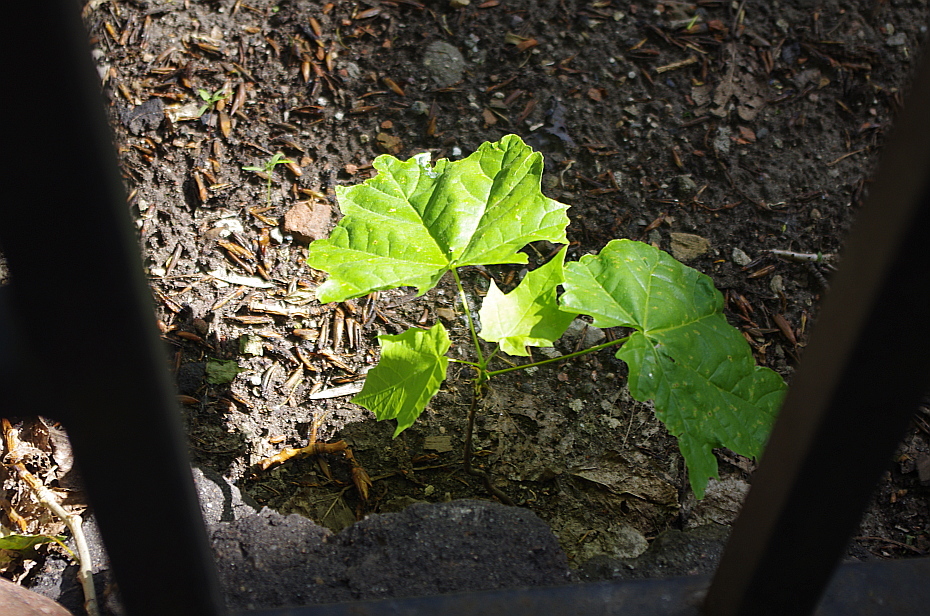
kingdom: Plantae
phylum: Tracheophyta
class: Magnoliopsida
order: Sapindales
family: Sapindaceae
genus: Acer
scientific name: Acer platanoides
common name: Norway maple
